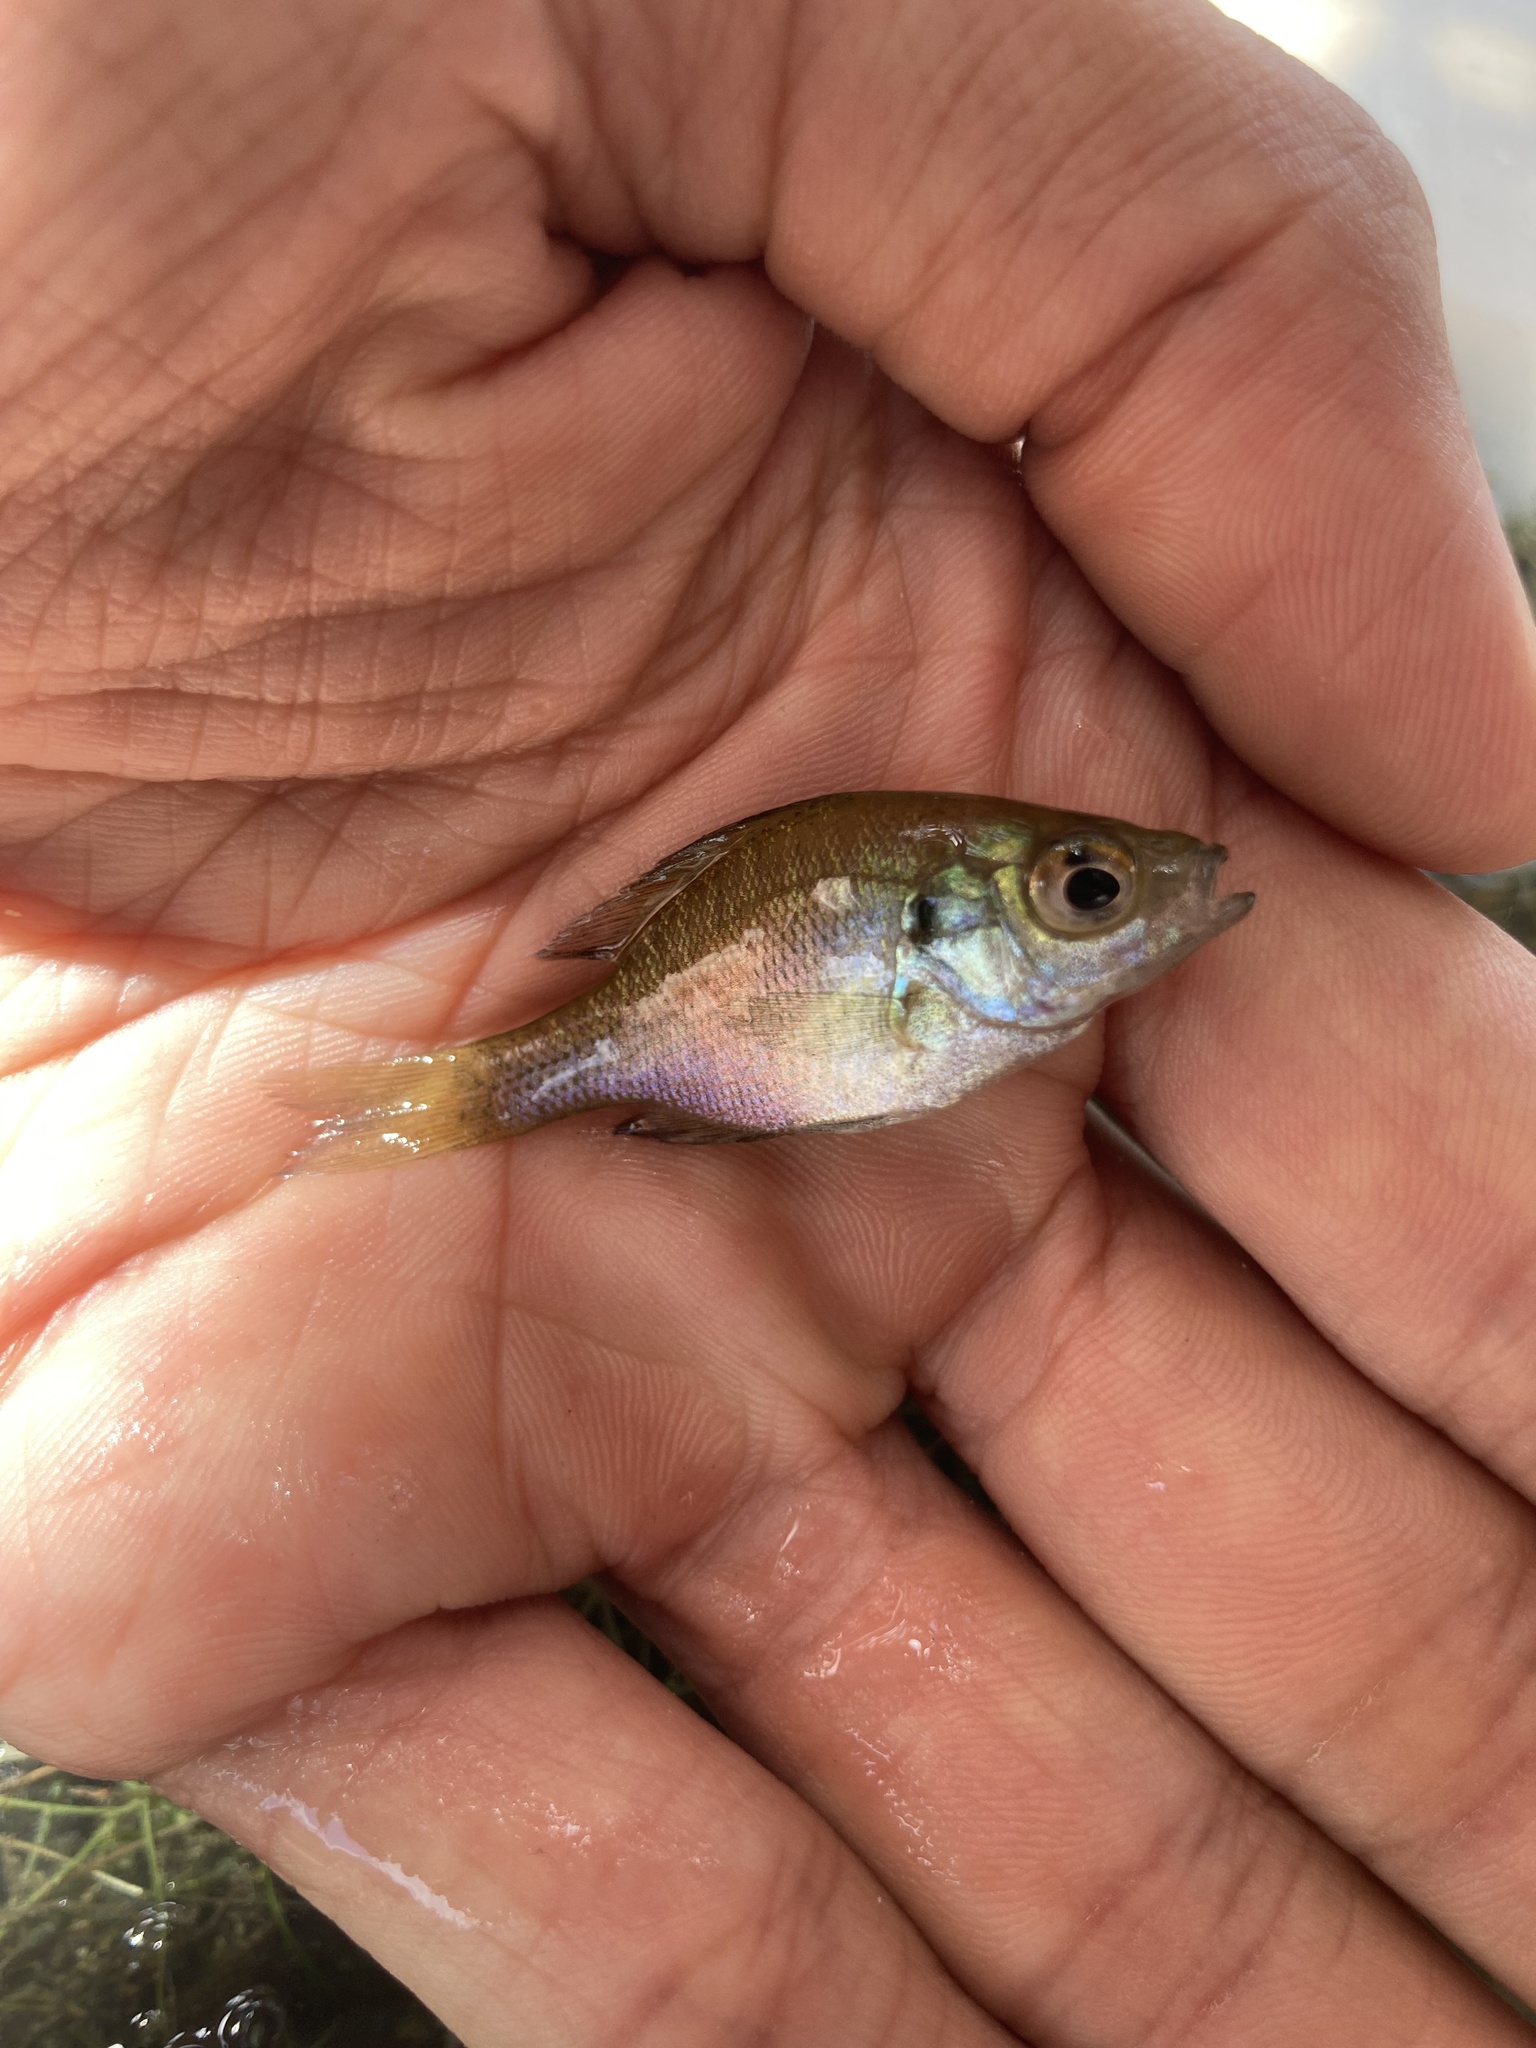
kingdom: Animalia
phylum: Chordata
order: Perciformes
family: Centrarchidae
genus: Lepomis
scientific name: Lepomis macrochirus
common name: Bluegill
